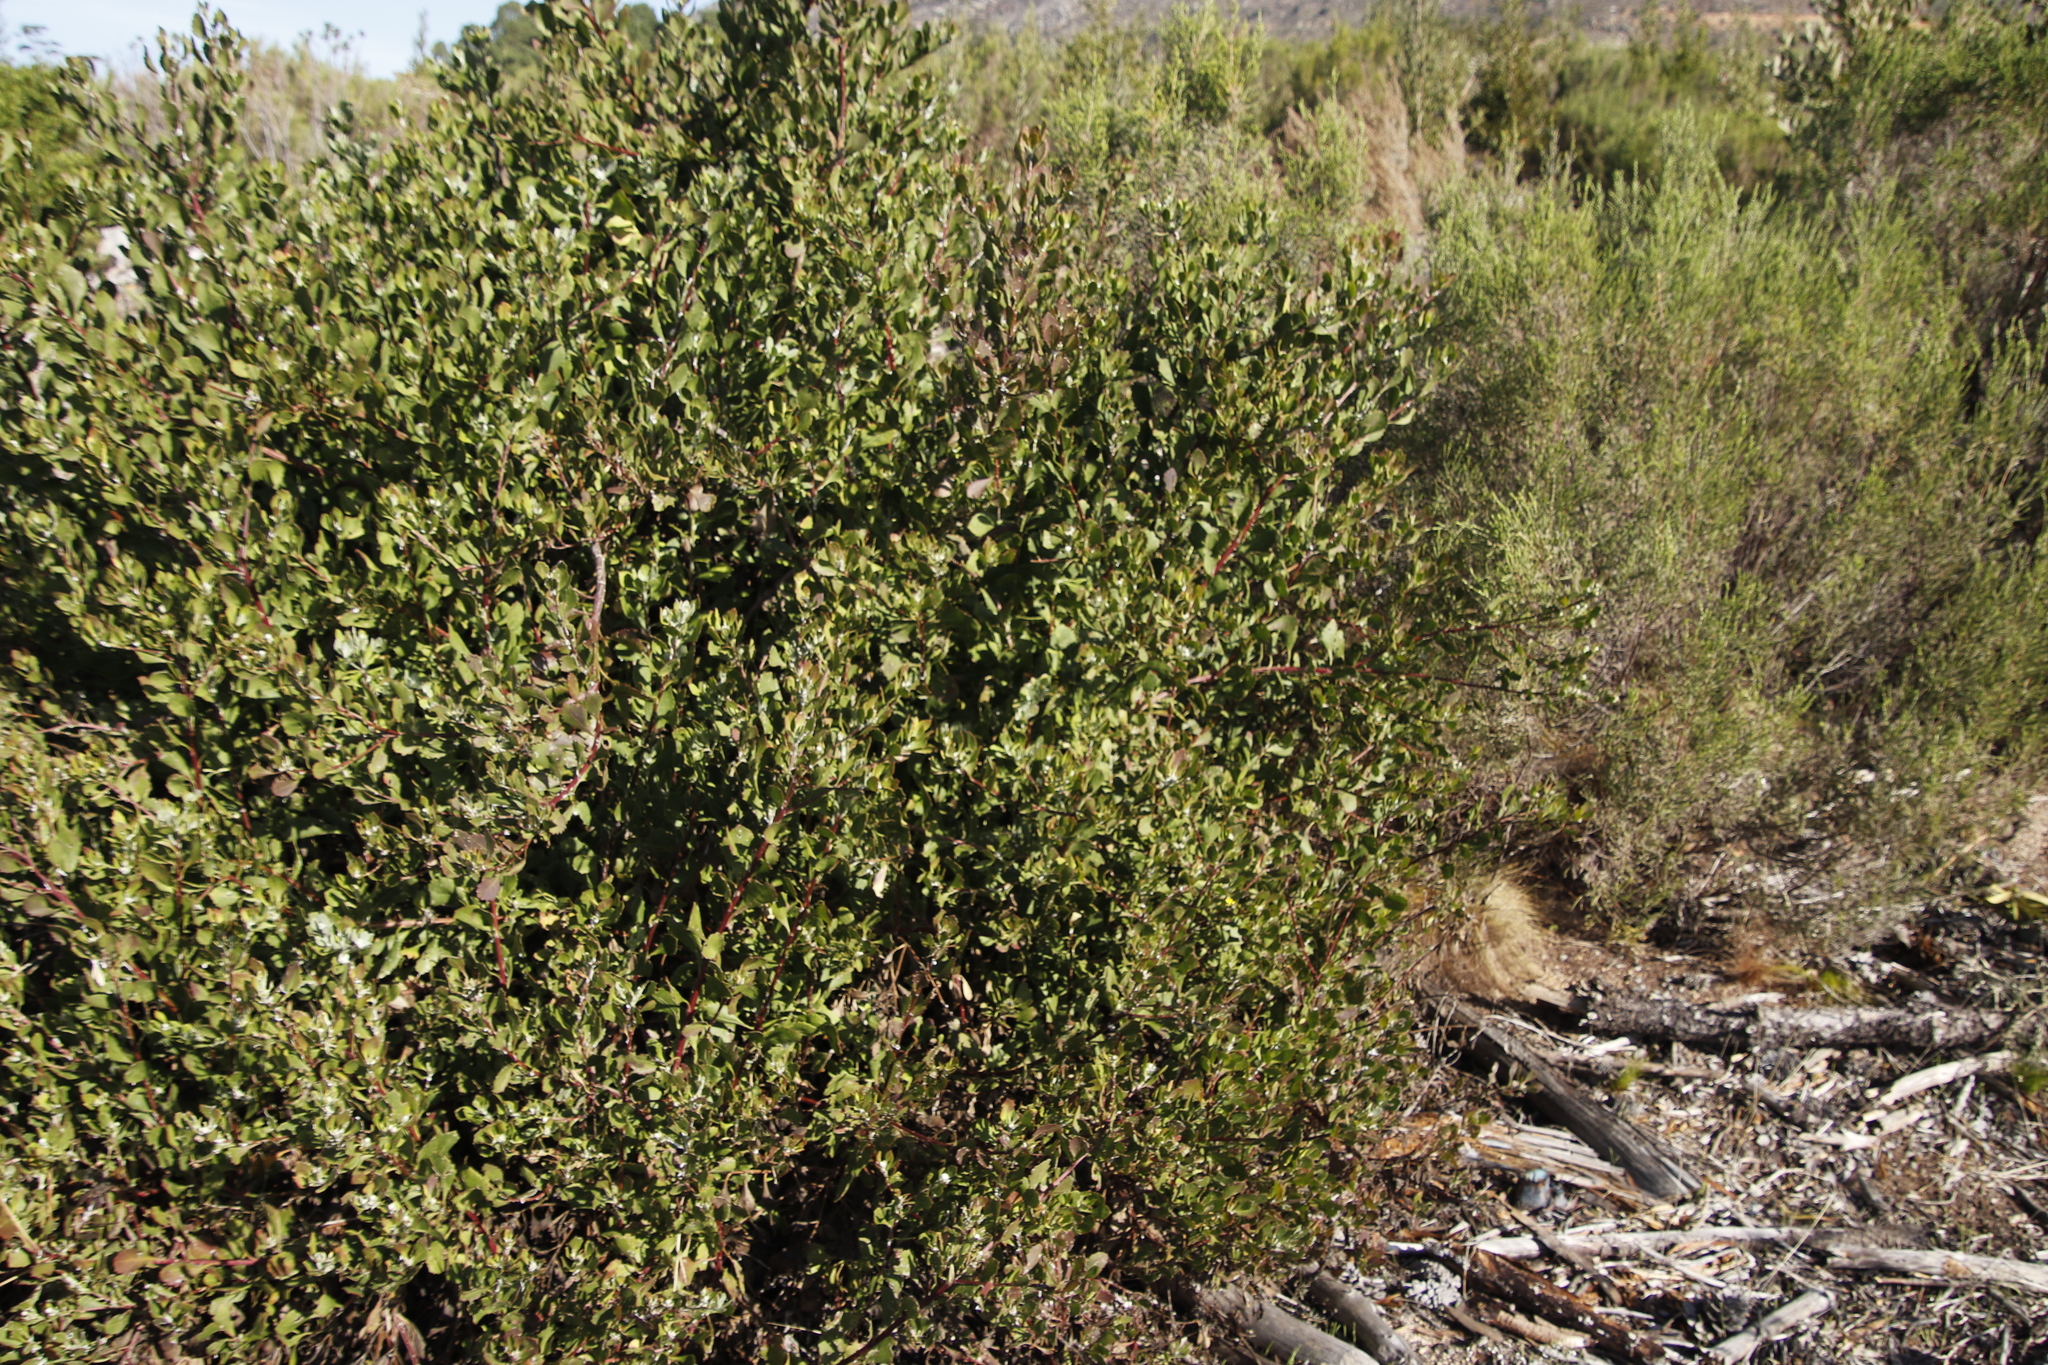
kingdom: Plantae
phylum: Tracheophyta
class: Magnoliopsida
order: Asterales
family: Asteraceae
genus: Osteospermum
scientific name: Osteospermum moniliferum
